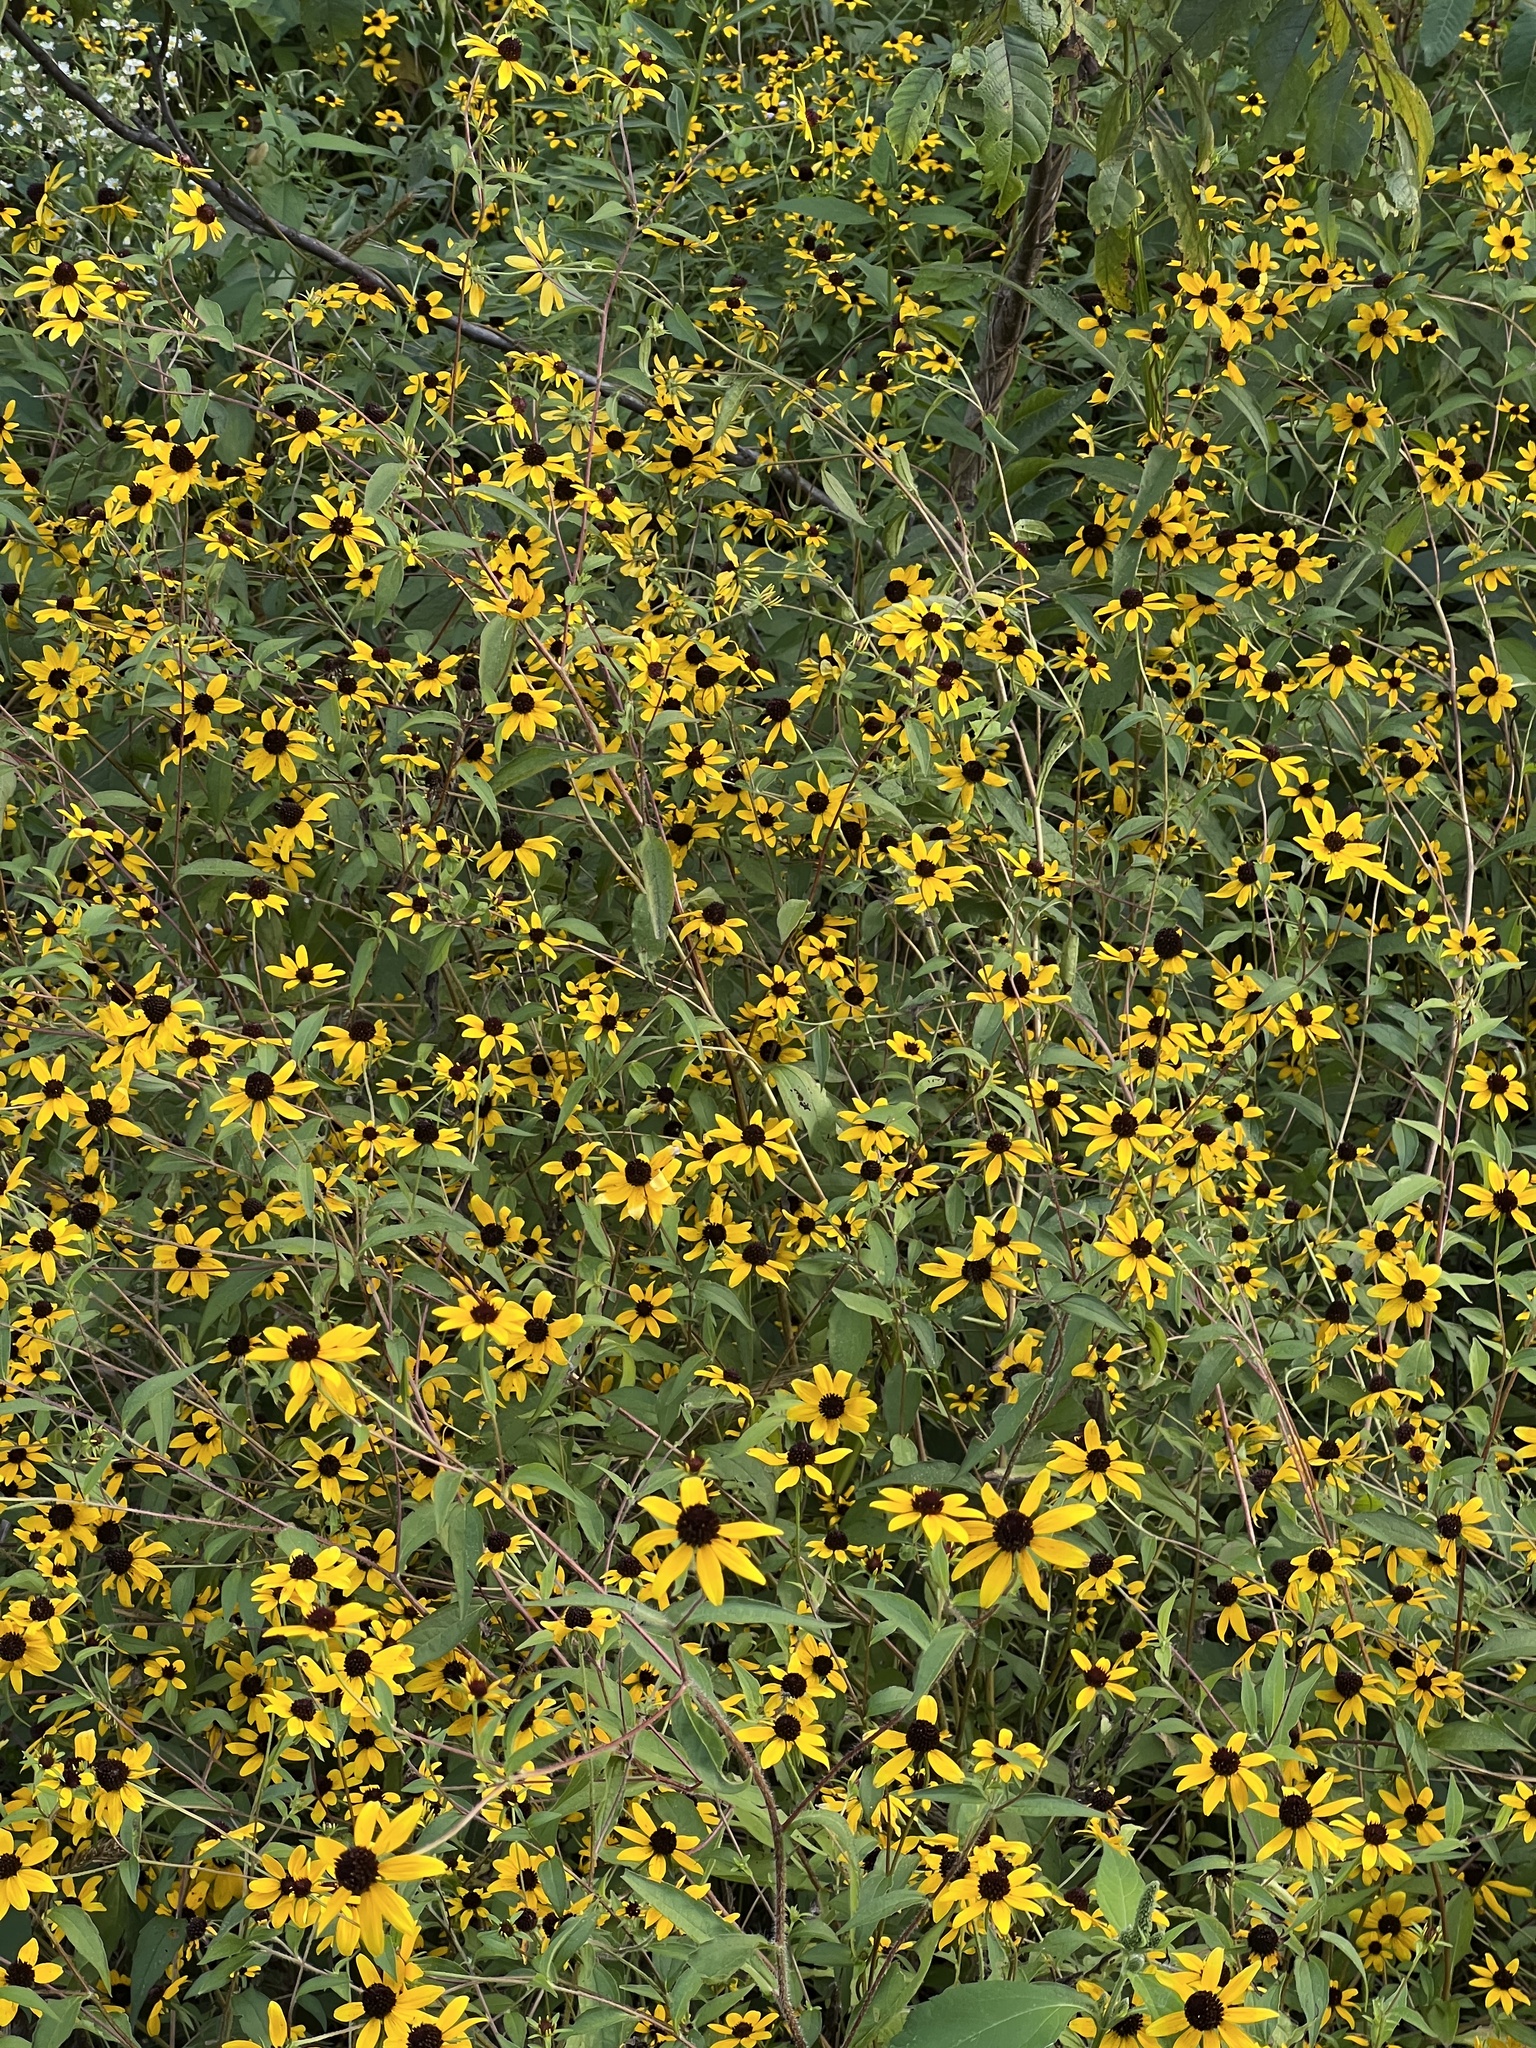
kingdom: Plantae
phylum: Tracheophyta
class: Magnoliopsida
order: Asterales
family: Asteraceae
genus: Rudbeckia
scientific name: Rudbeckia triloba
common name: Thin-leaved coneflower
